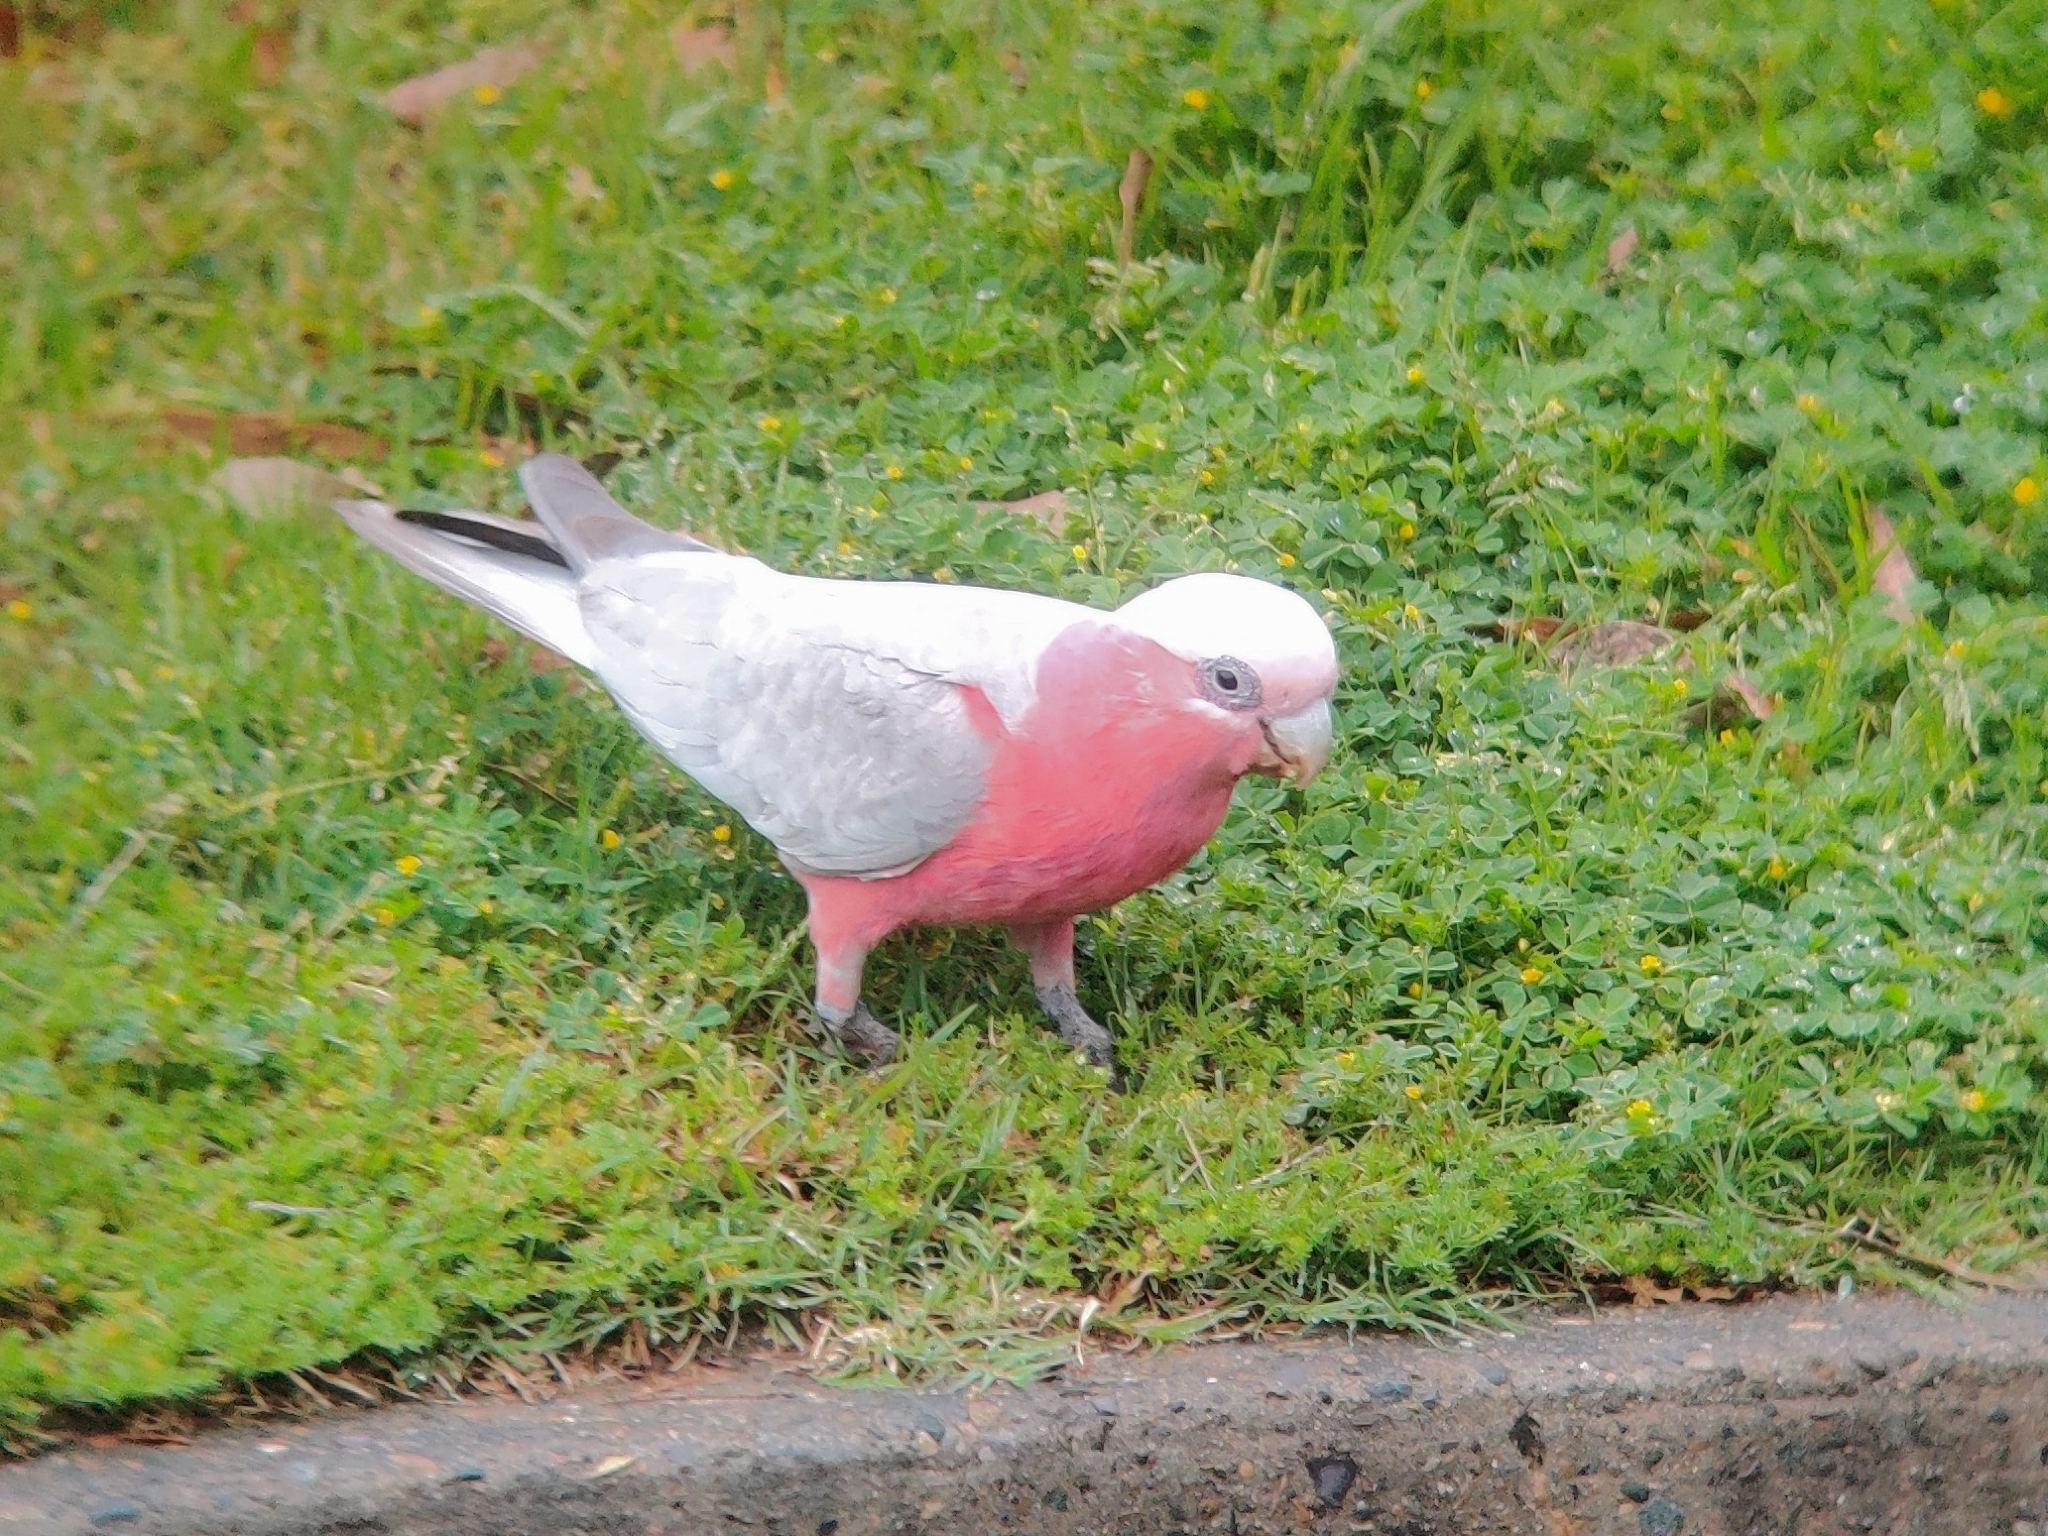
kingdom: Animalia
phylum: Chordata
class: Aves
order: Psittaciformes
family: Psittacidae
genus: Eolophus
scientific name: Eolophus roseicapilla
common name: Galah
